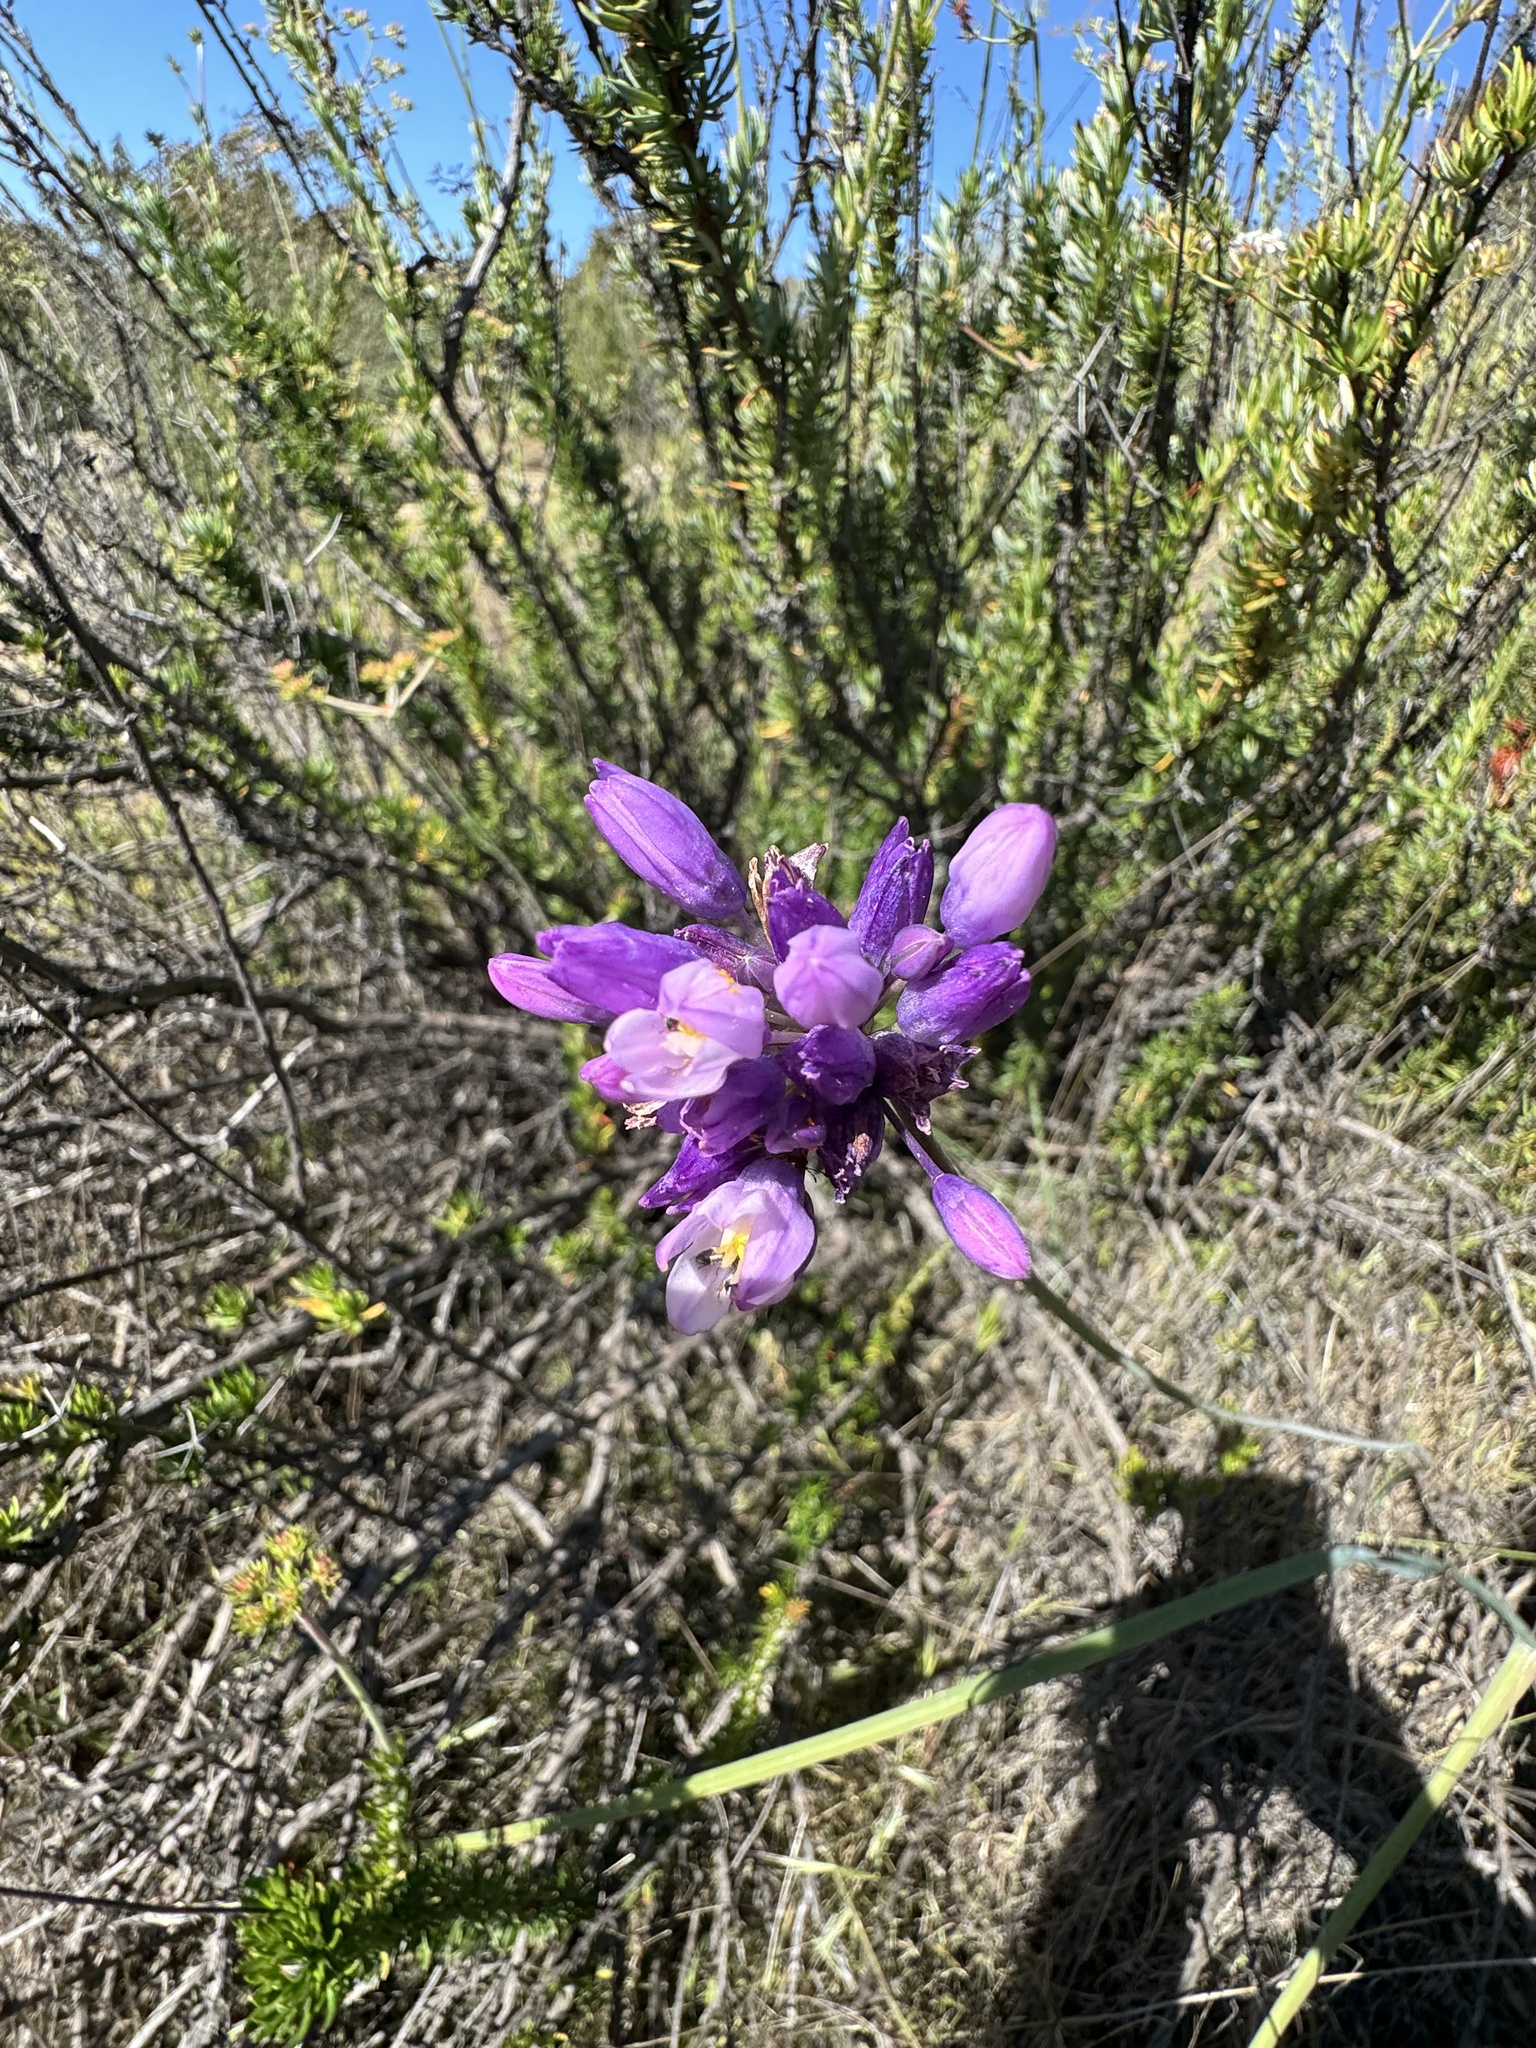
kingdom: Plantae
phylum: Tracheophyta
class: Liliopsida
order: Asparagales
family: Asparagaceae
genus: Dipterostemon
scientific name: Dipterostemon capitatus
